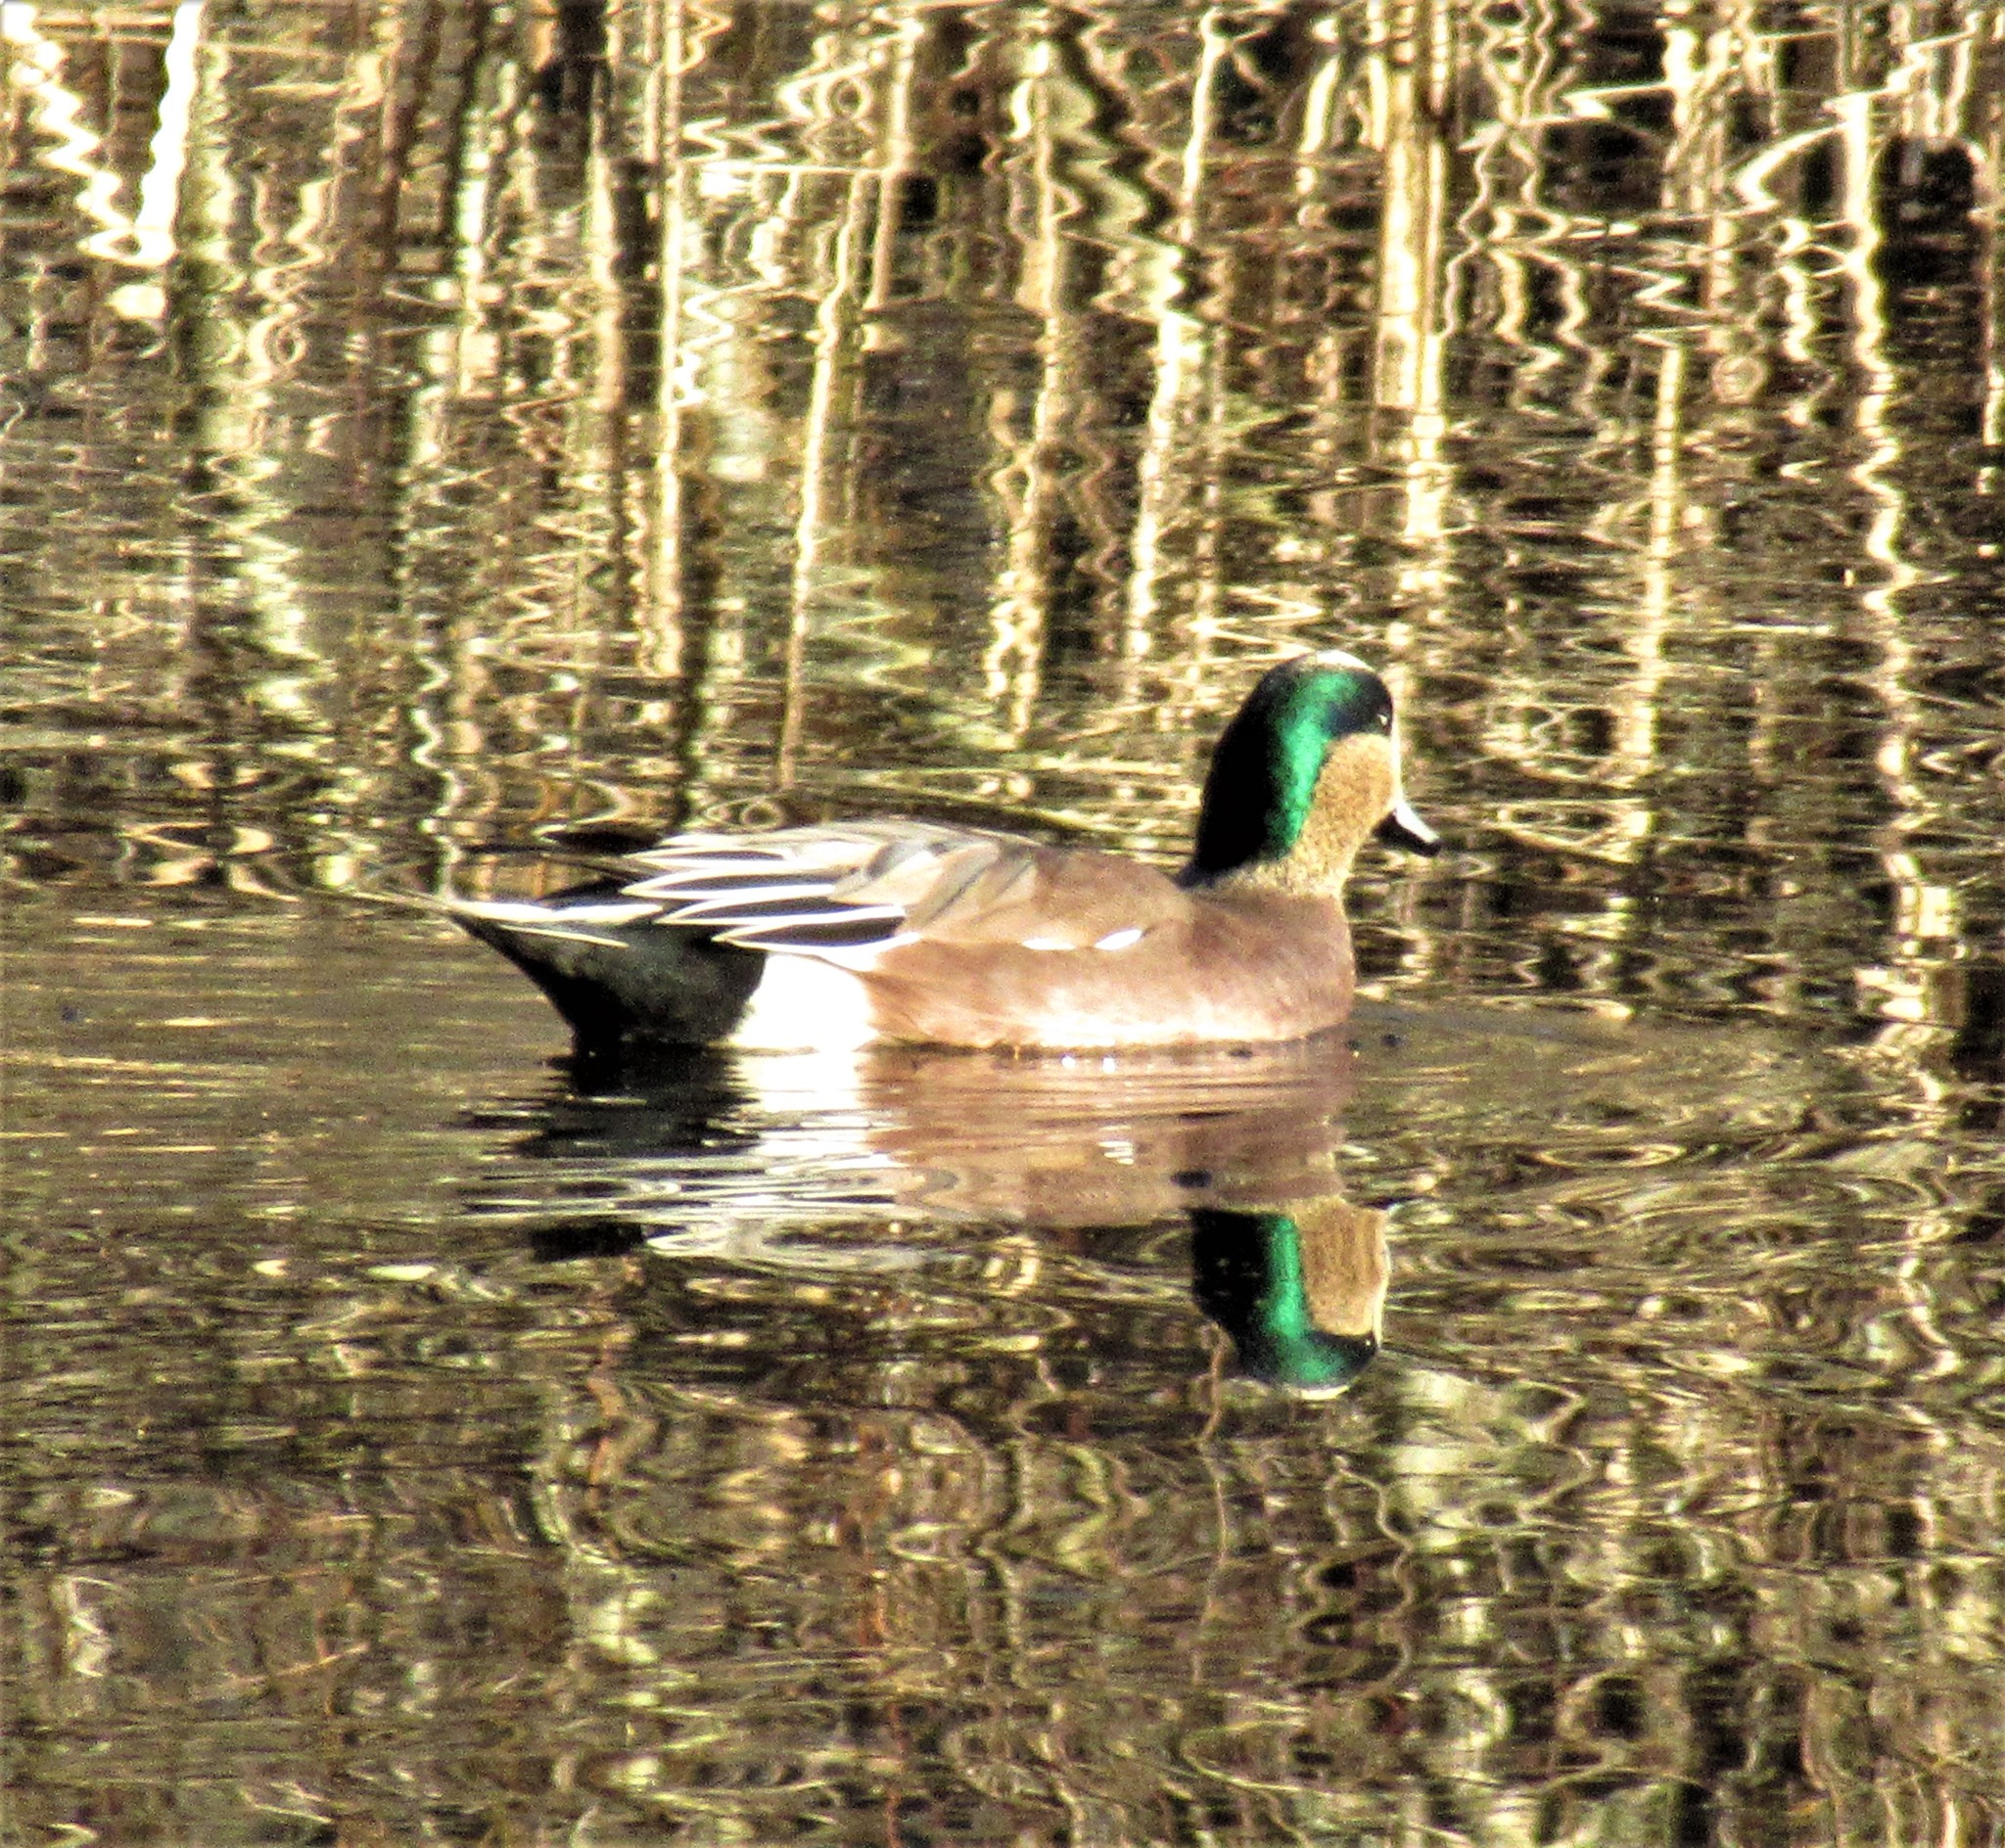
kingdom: Animalia
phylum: Chordata
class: Aves
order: Anseriformes
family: Anatidae
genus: Mareca
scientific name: Mareca americana
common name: American wigeon
